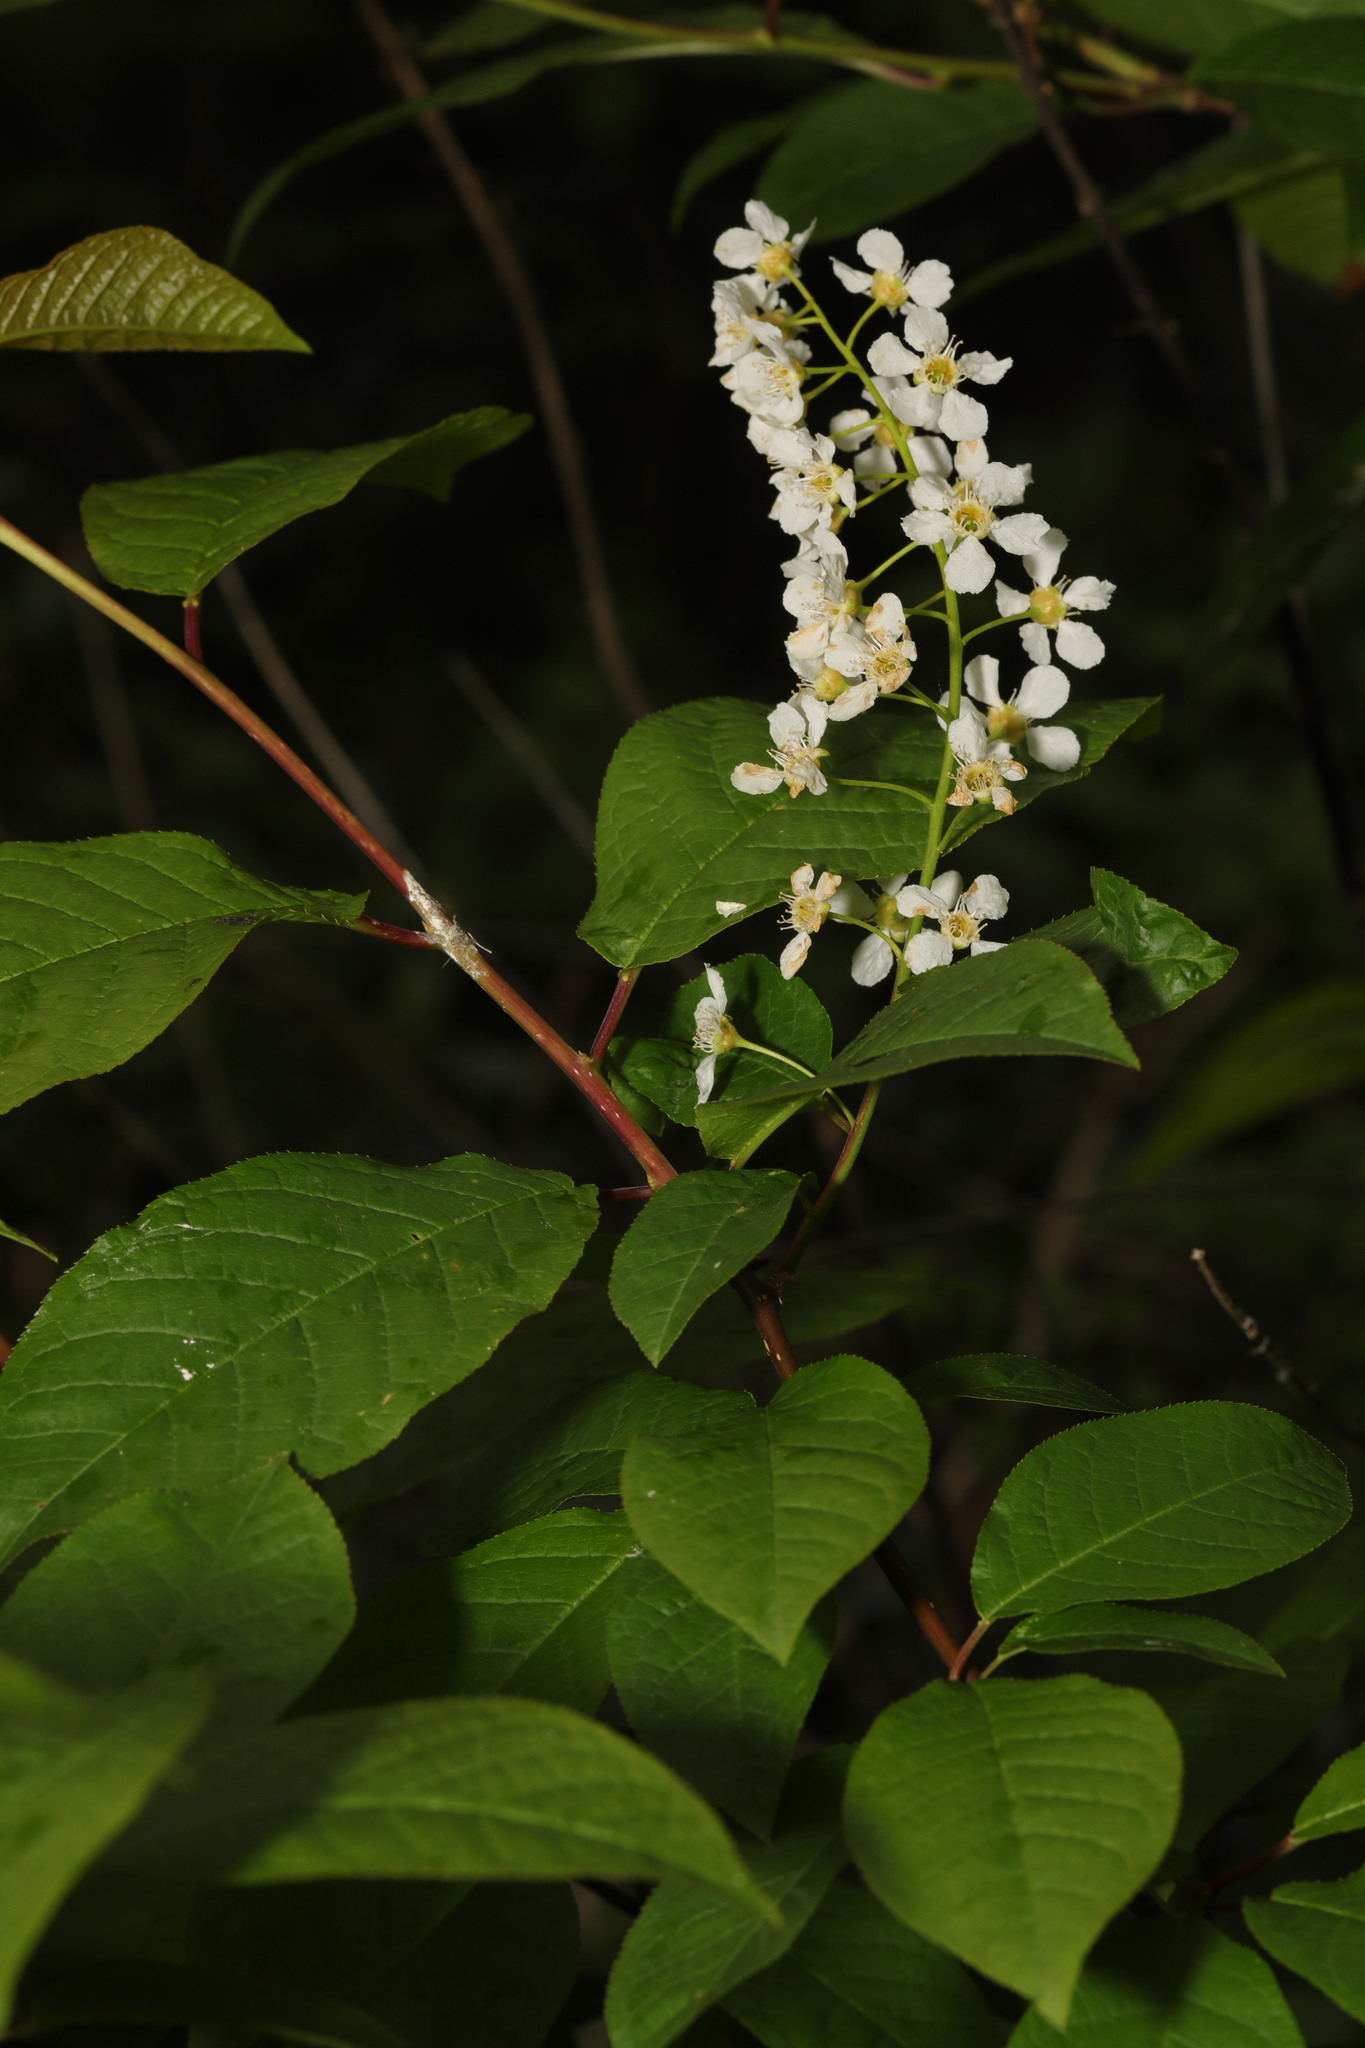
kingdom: Plantae
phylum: Tracheophyta
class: Magnoliopsida
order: Rosales
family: Rosaceae
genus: Prunus
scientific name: Prunus padus
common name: Bird cherry
